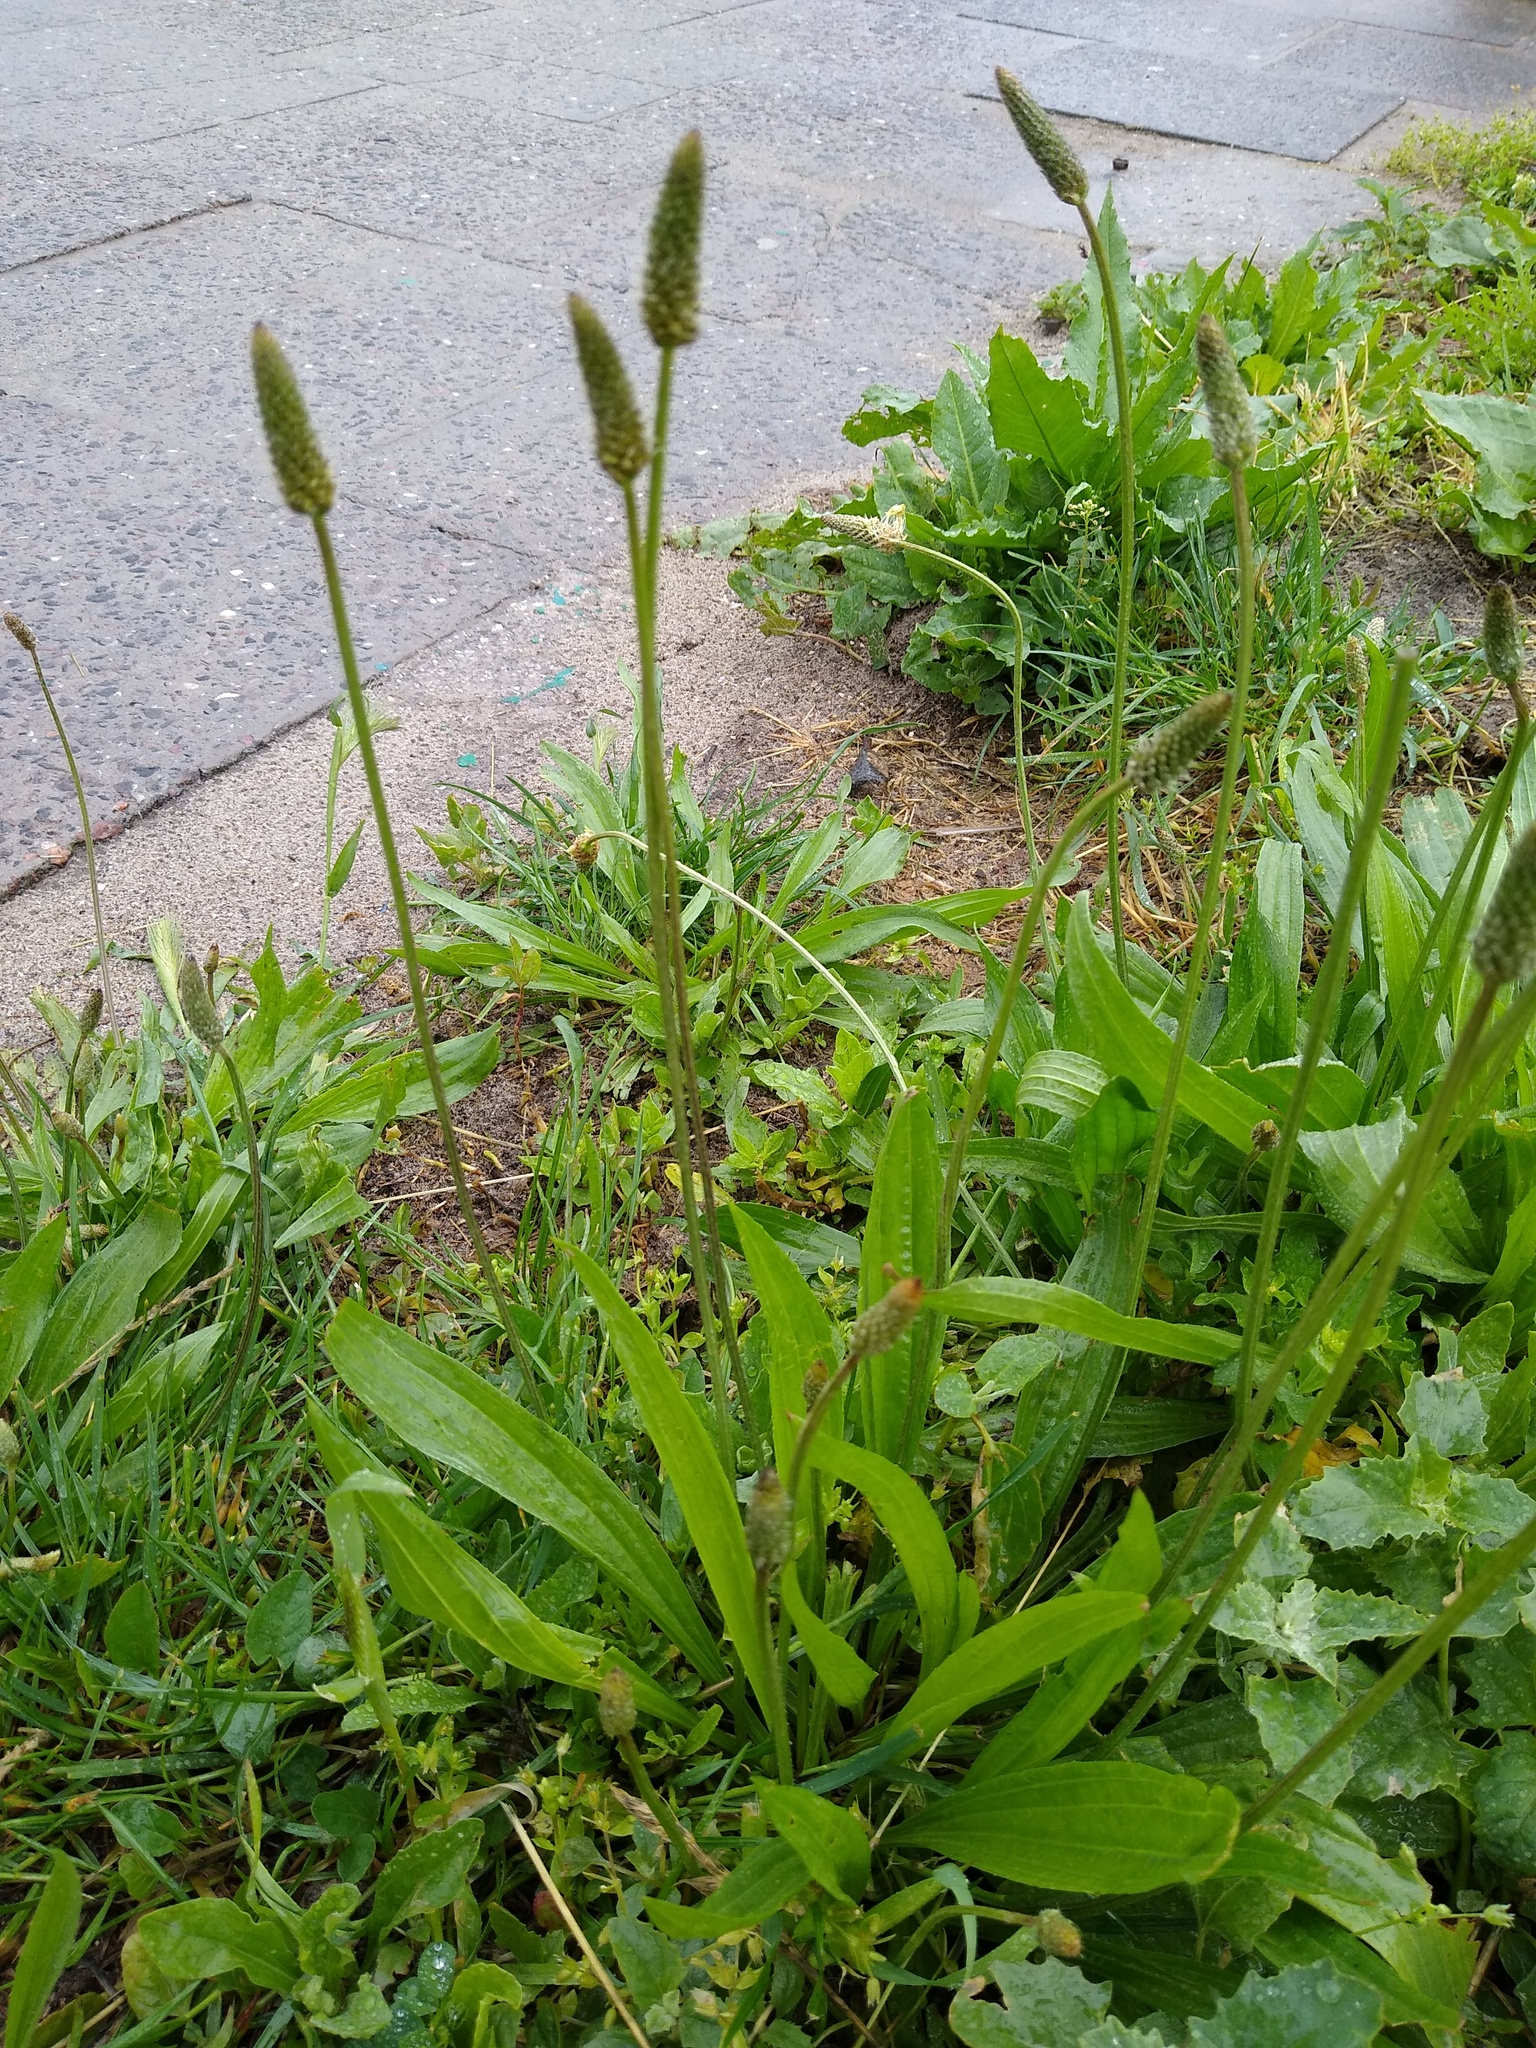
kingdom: Plantae
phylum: Tracheophyta
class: Magnoliopsida
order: Lamiales
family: Plantaginaceae
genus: Plantago
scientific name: Plantago lanceolata
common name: Ribwort plantain
